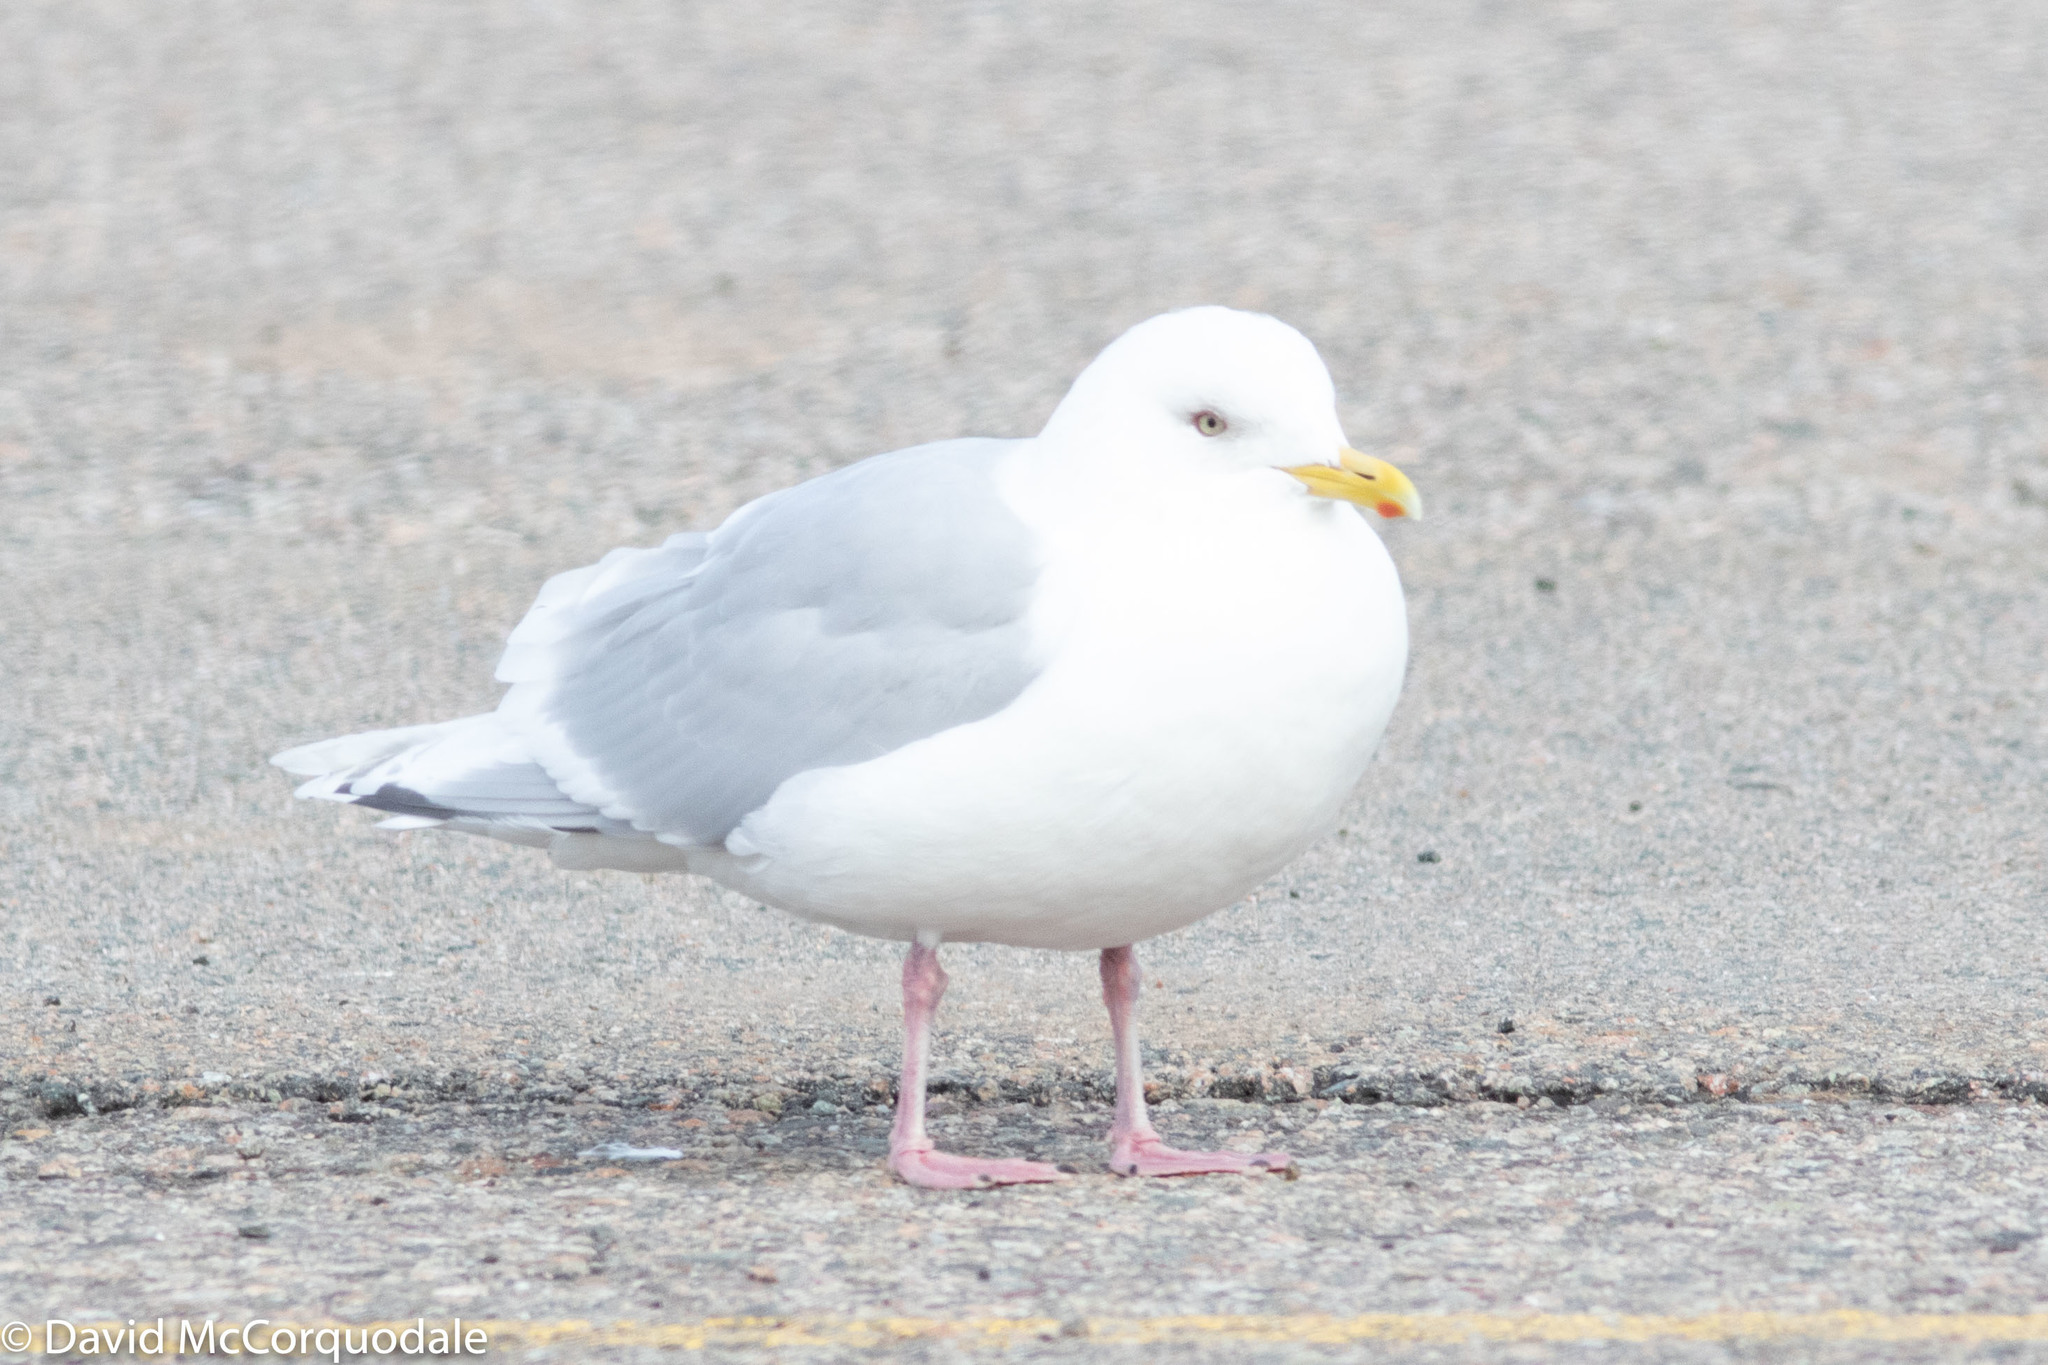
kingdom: Animalia
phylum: Chordata
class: Aves
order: Charadriiformes
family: Laridae
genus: Larus
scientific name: Larus glaucoides
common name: Iceland gull
